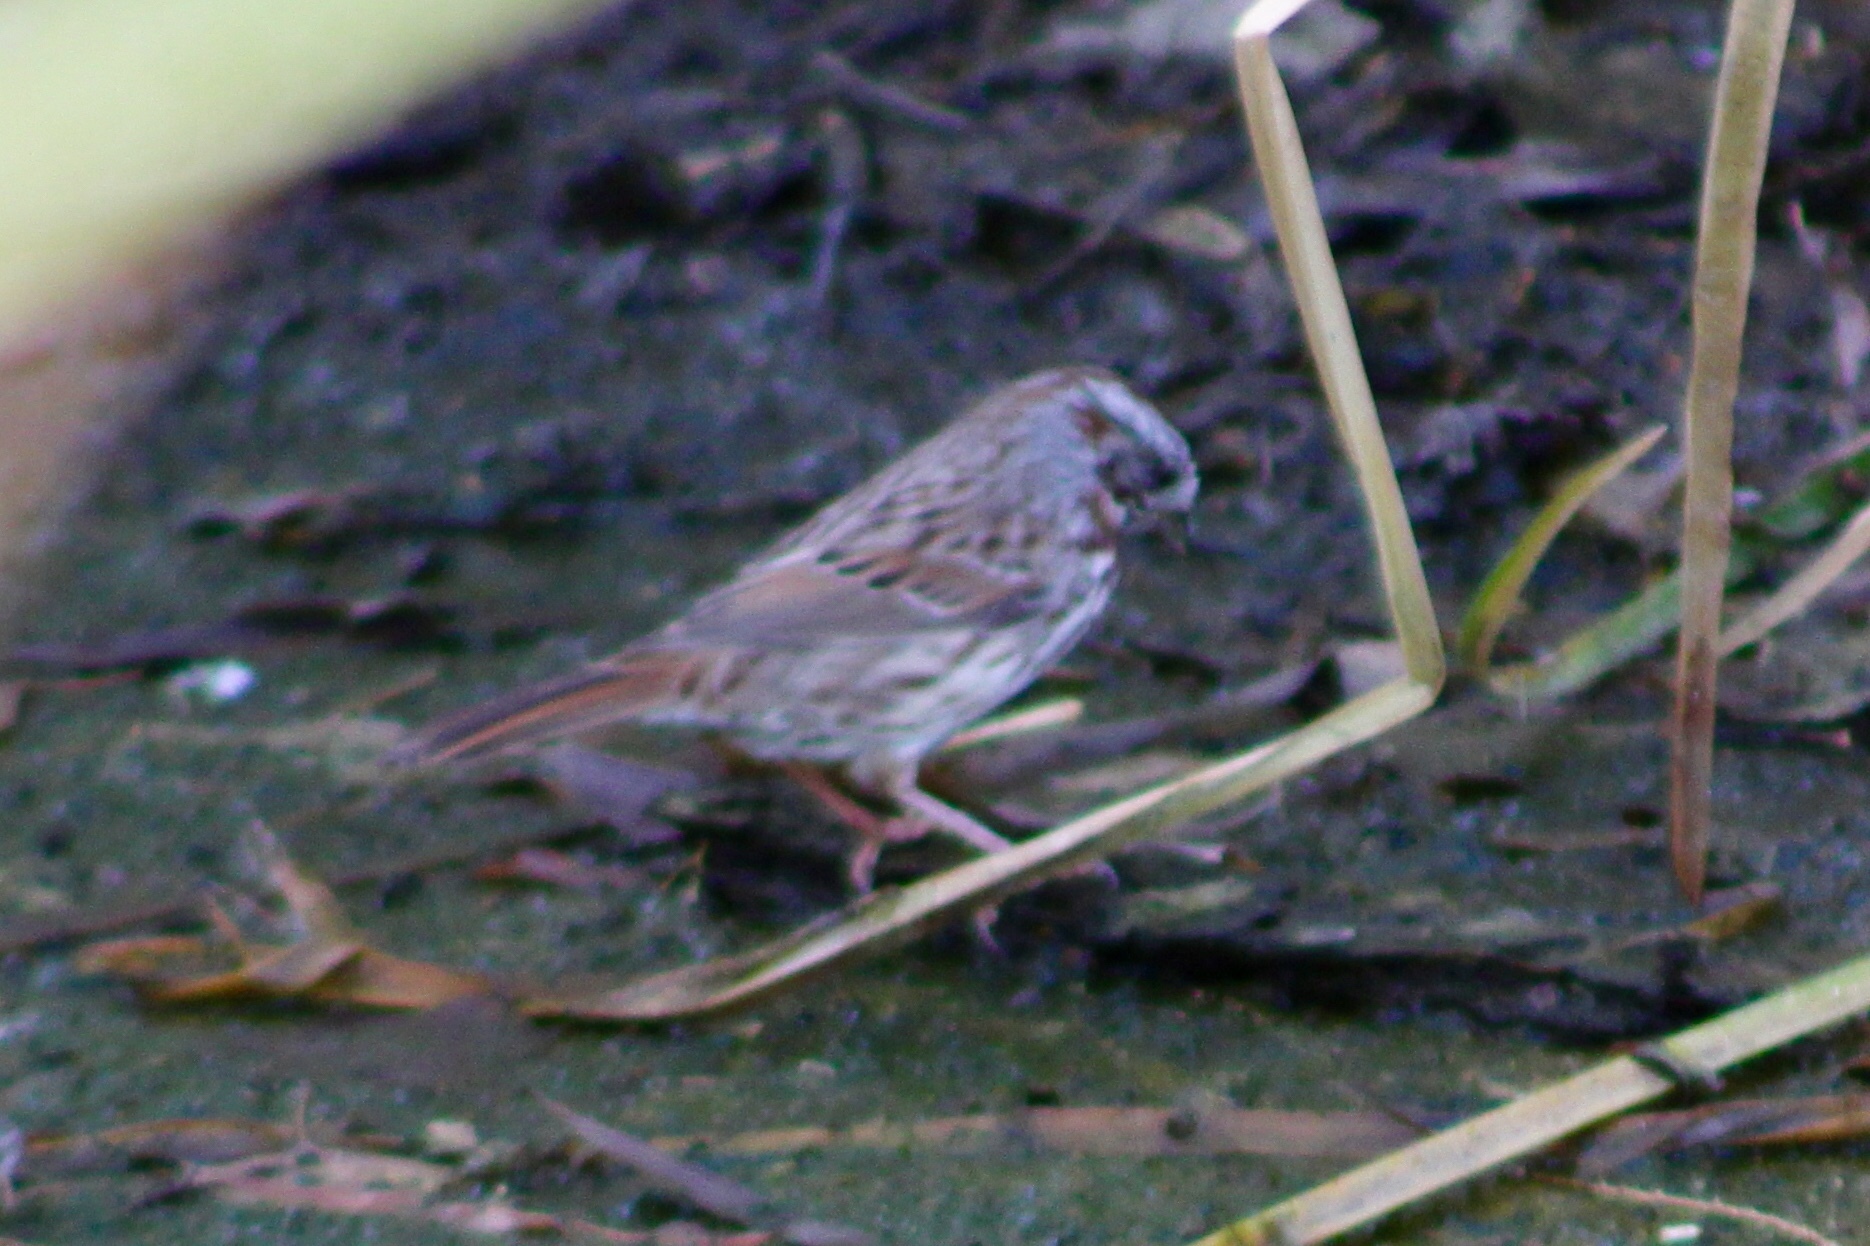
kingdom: Animalia
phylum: Chordata
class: Aves
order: Passeriformes
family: Passerellidae
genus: Melospiza
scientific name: Melospiza melodia
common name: Song sparrow
